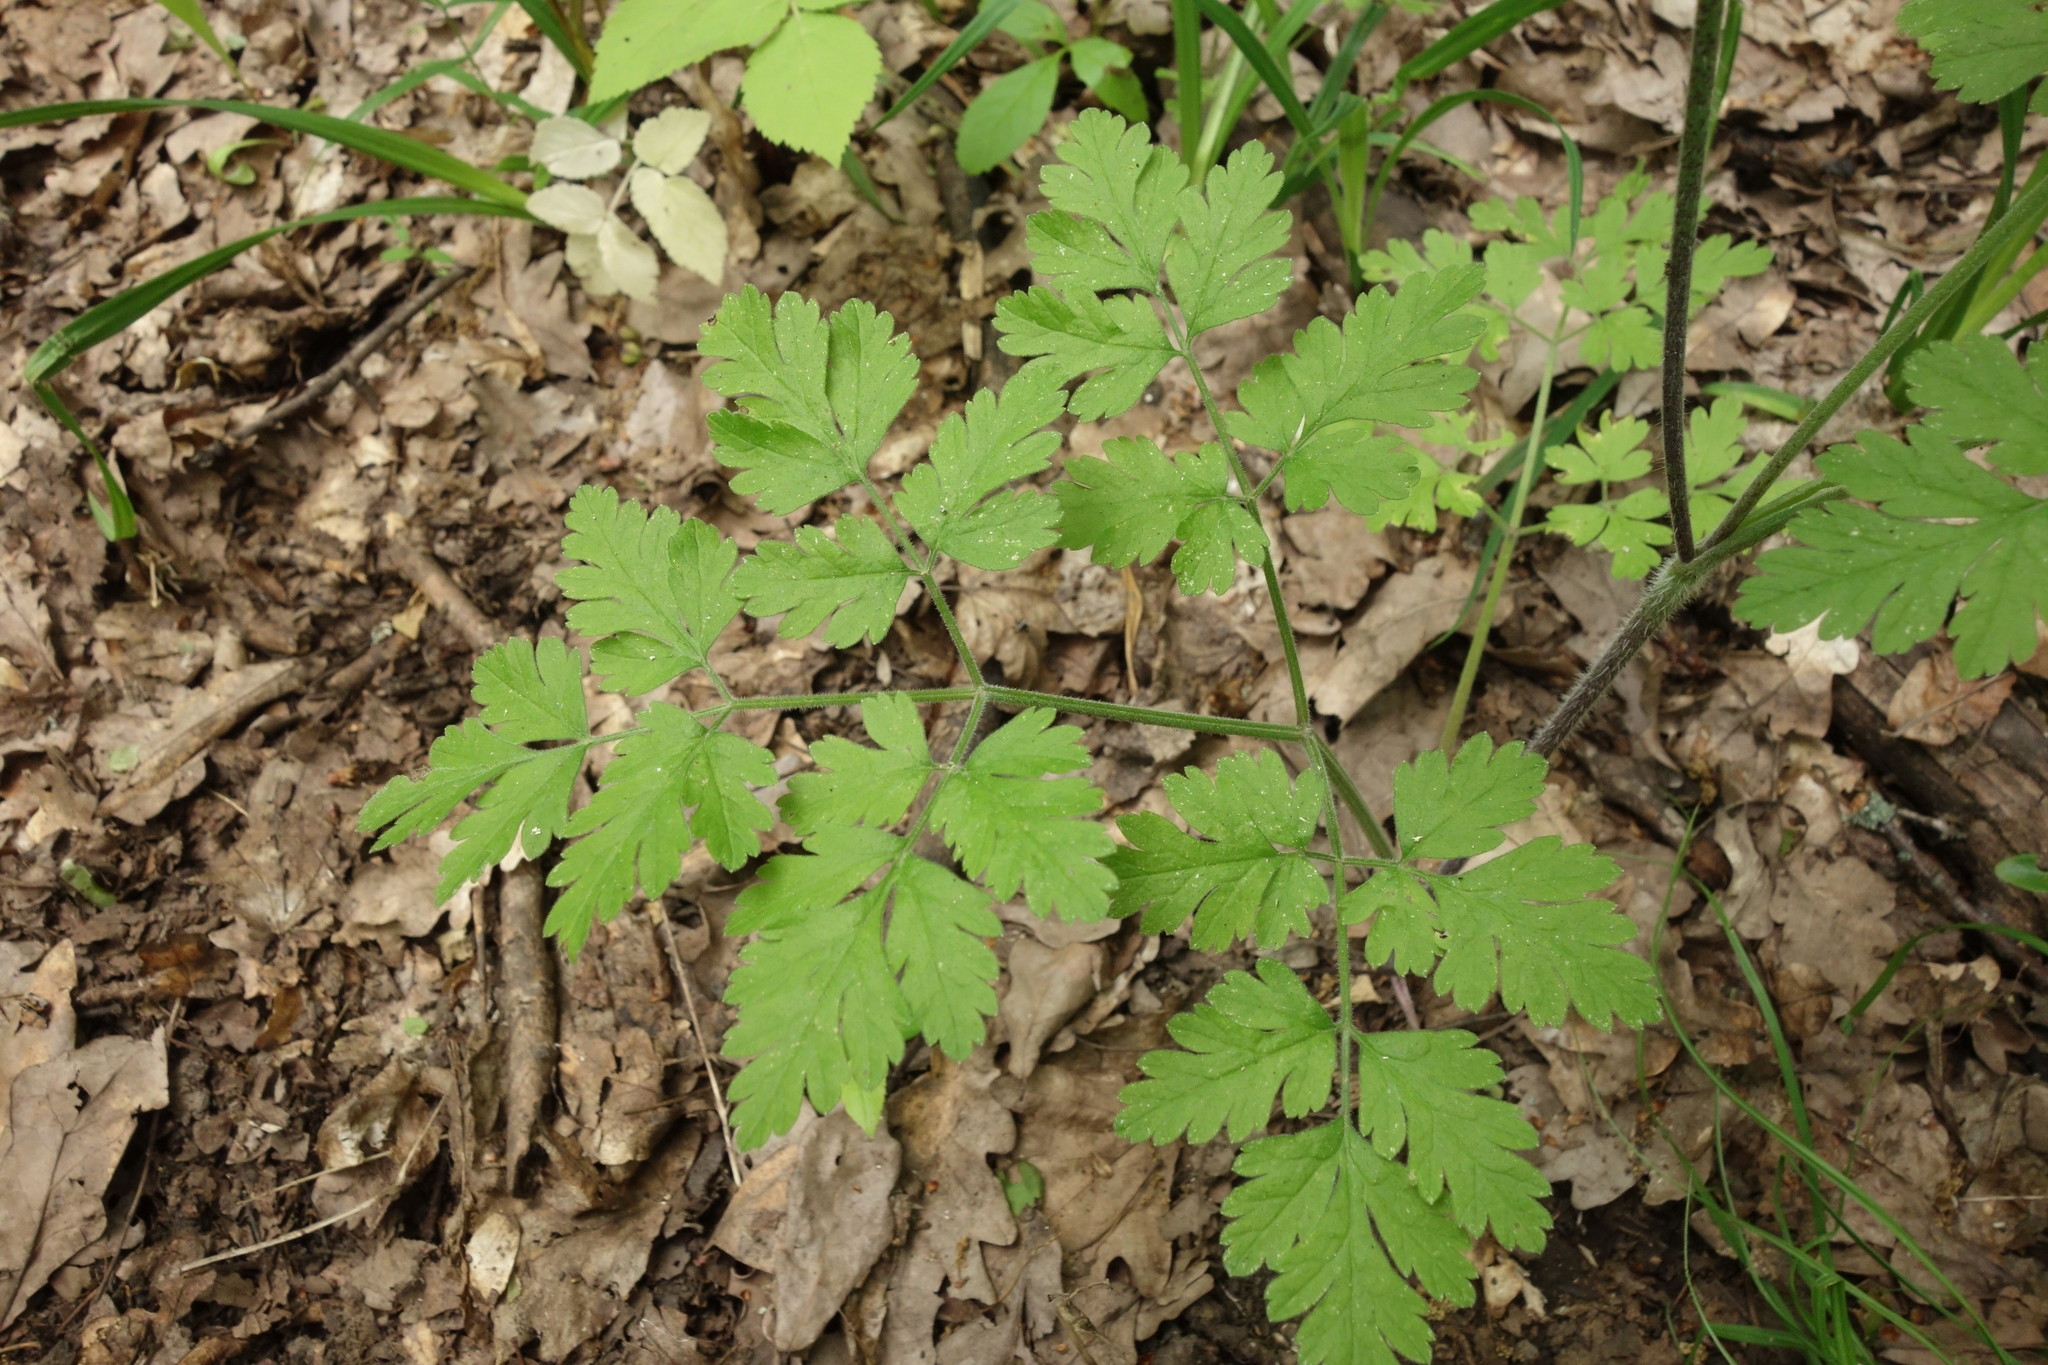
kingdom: Plantae
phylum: Tracheophyta
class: Magnoliopsida
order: Apiales
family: Apiaceae
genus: Chaerophyllum
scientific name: Chaerophyllum temulum
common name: Rough chervil
